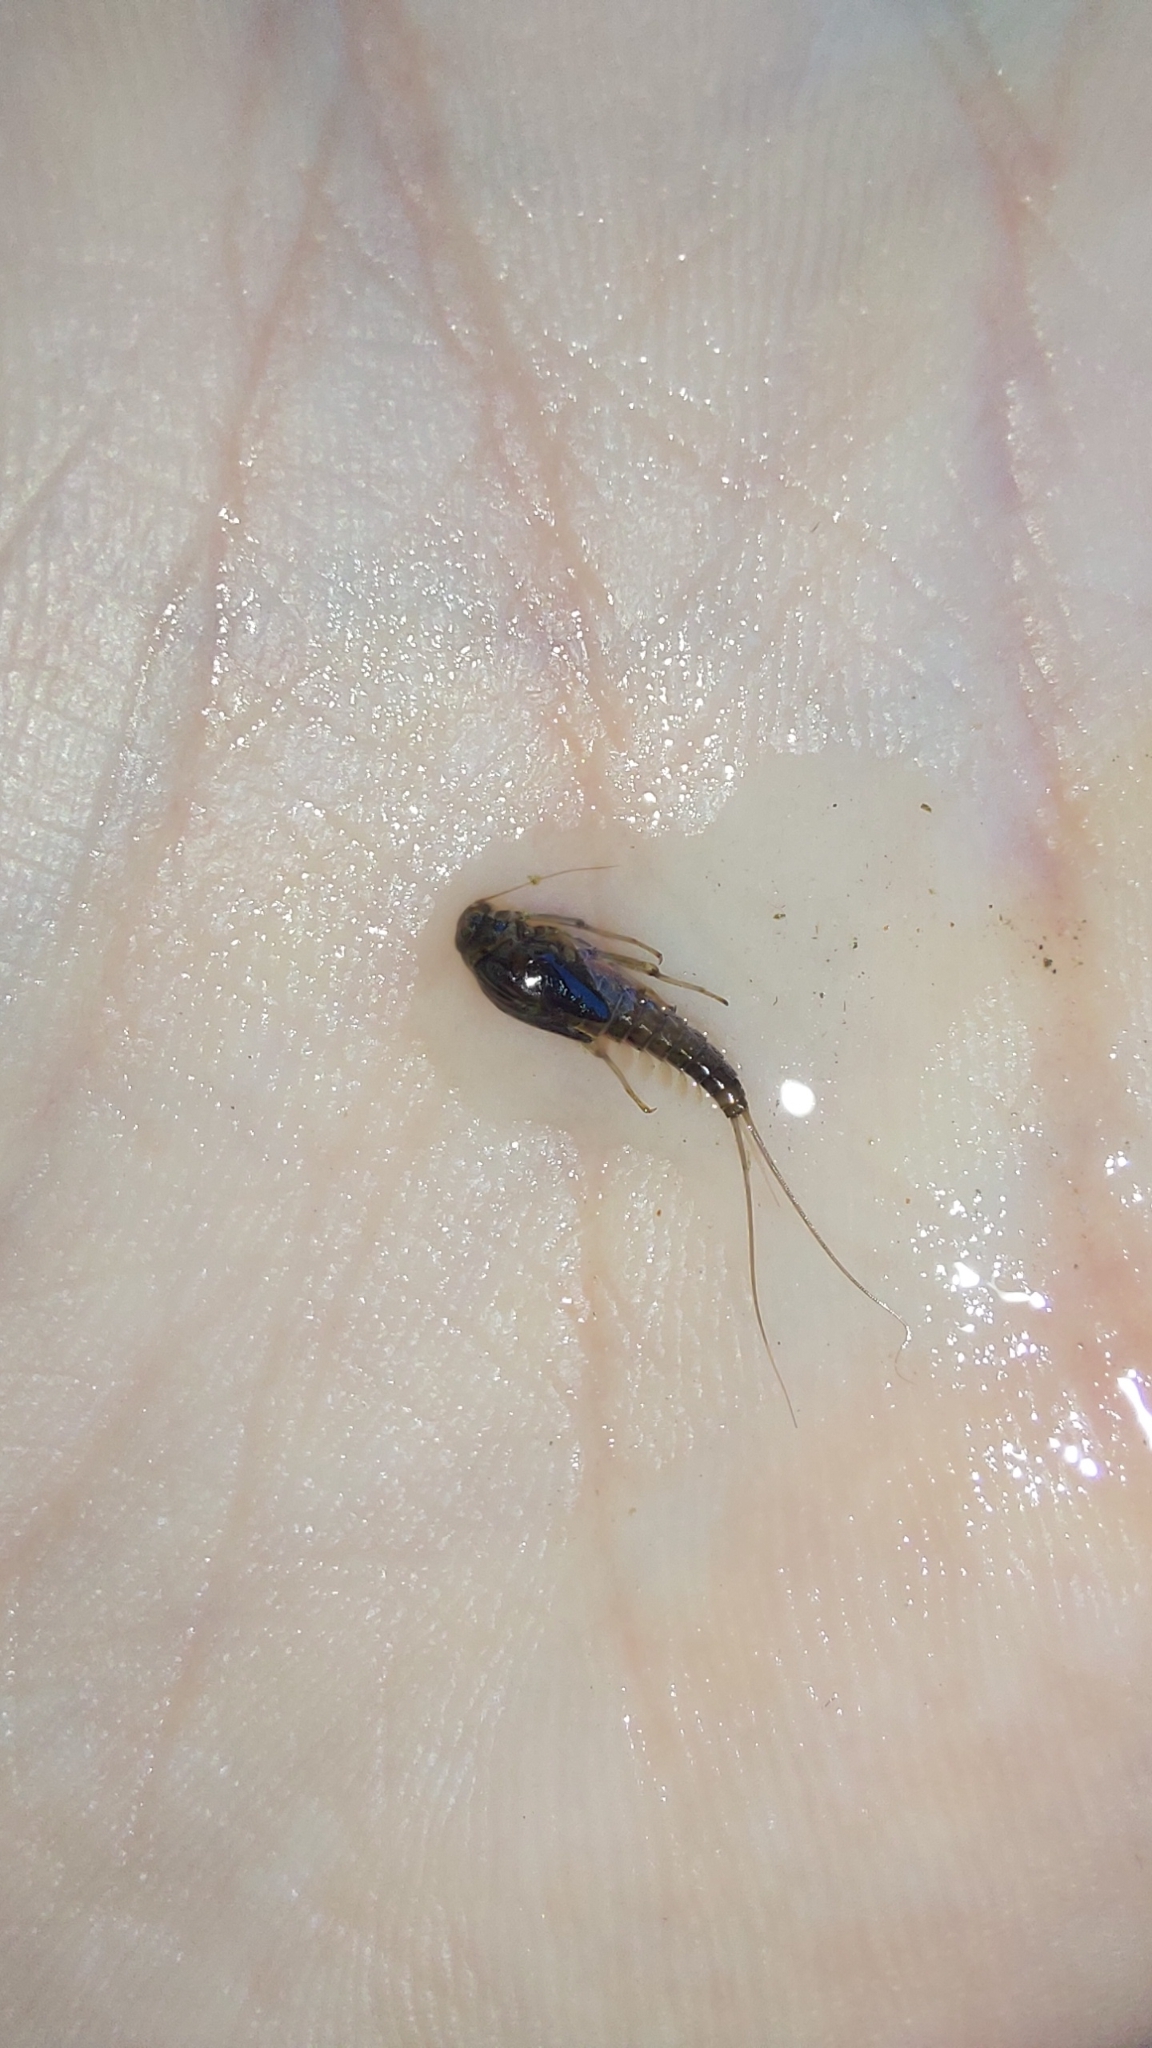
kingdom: Animalia
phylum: Arthropoda
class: Insecta
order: Ephemeroptera
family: Baetidae
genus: Baetis
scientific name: Baetis alpinus
